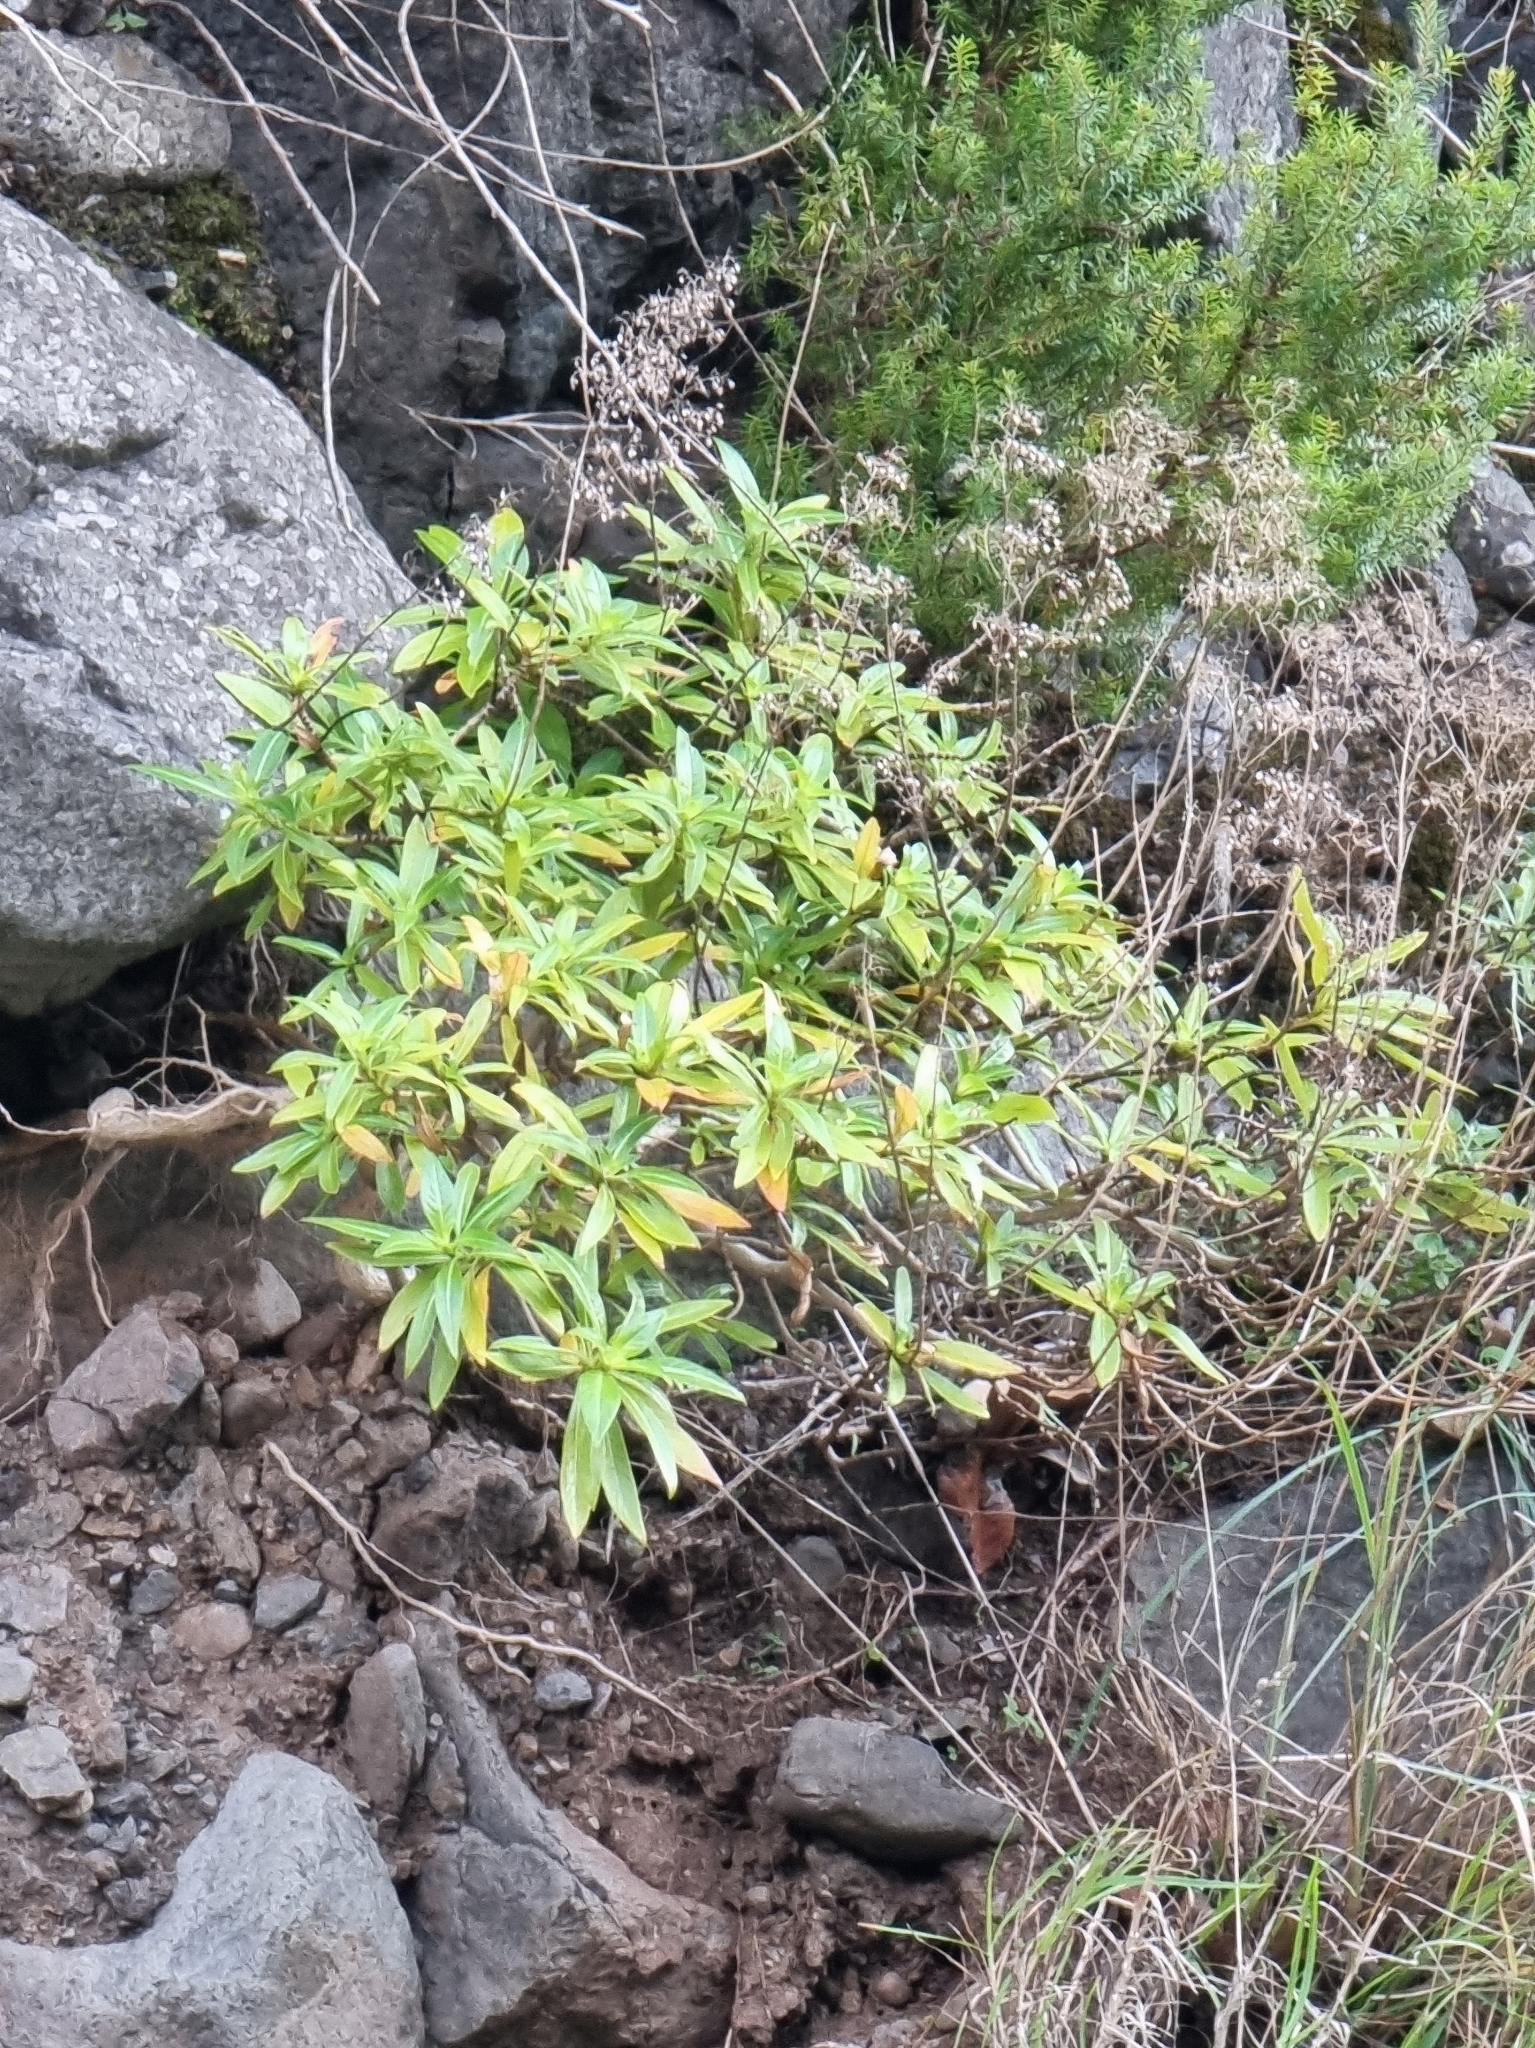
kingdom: Plantae
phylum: Tracheophyta
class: Magnoliopsida
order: Gentianales
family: Rubiaceae
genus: Phyllis
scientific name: Phyllis nobla
